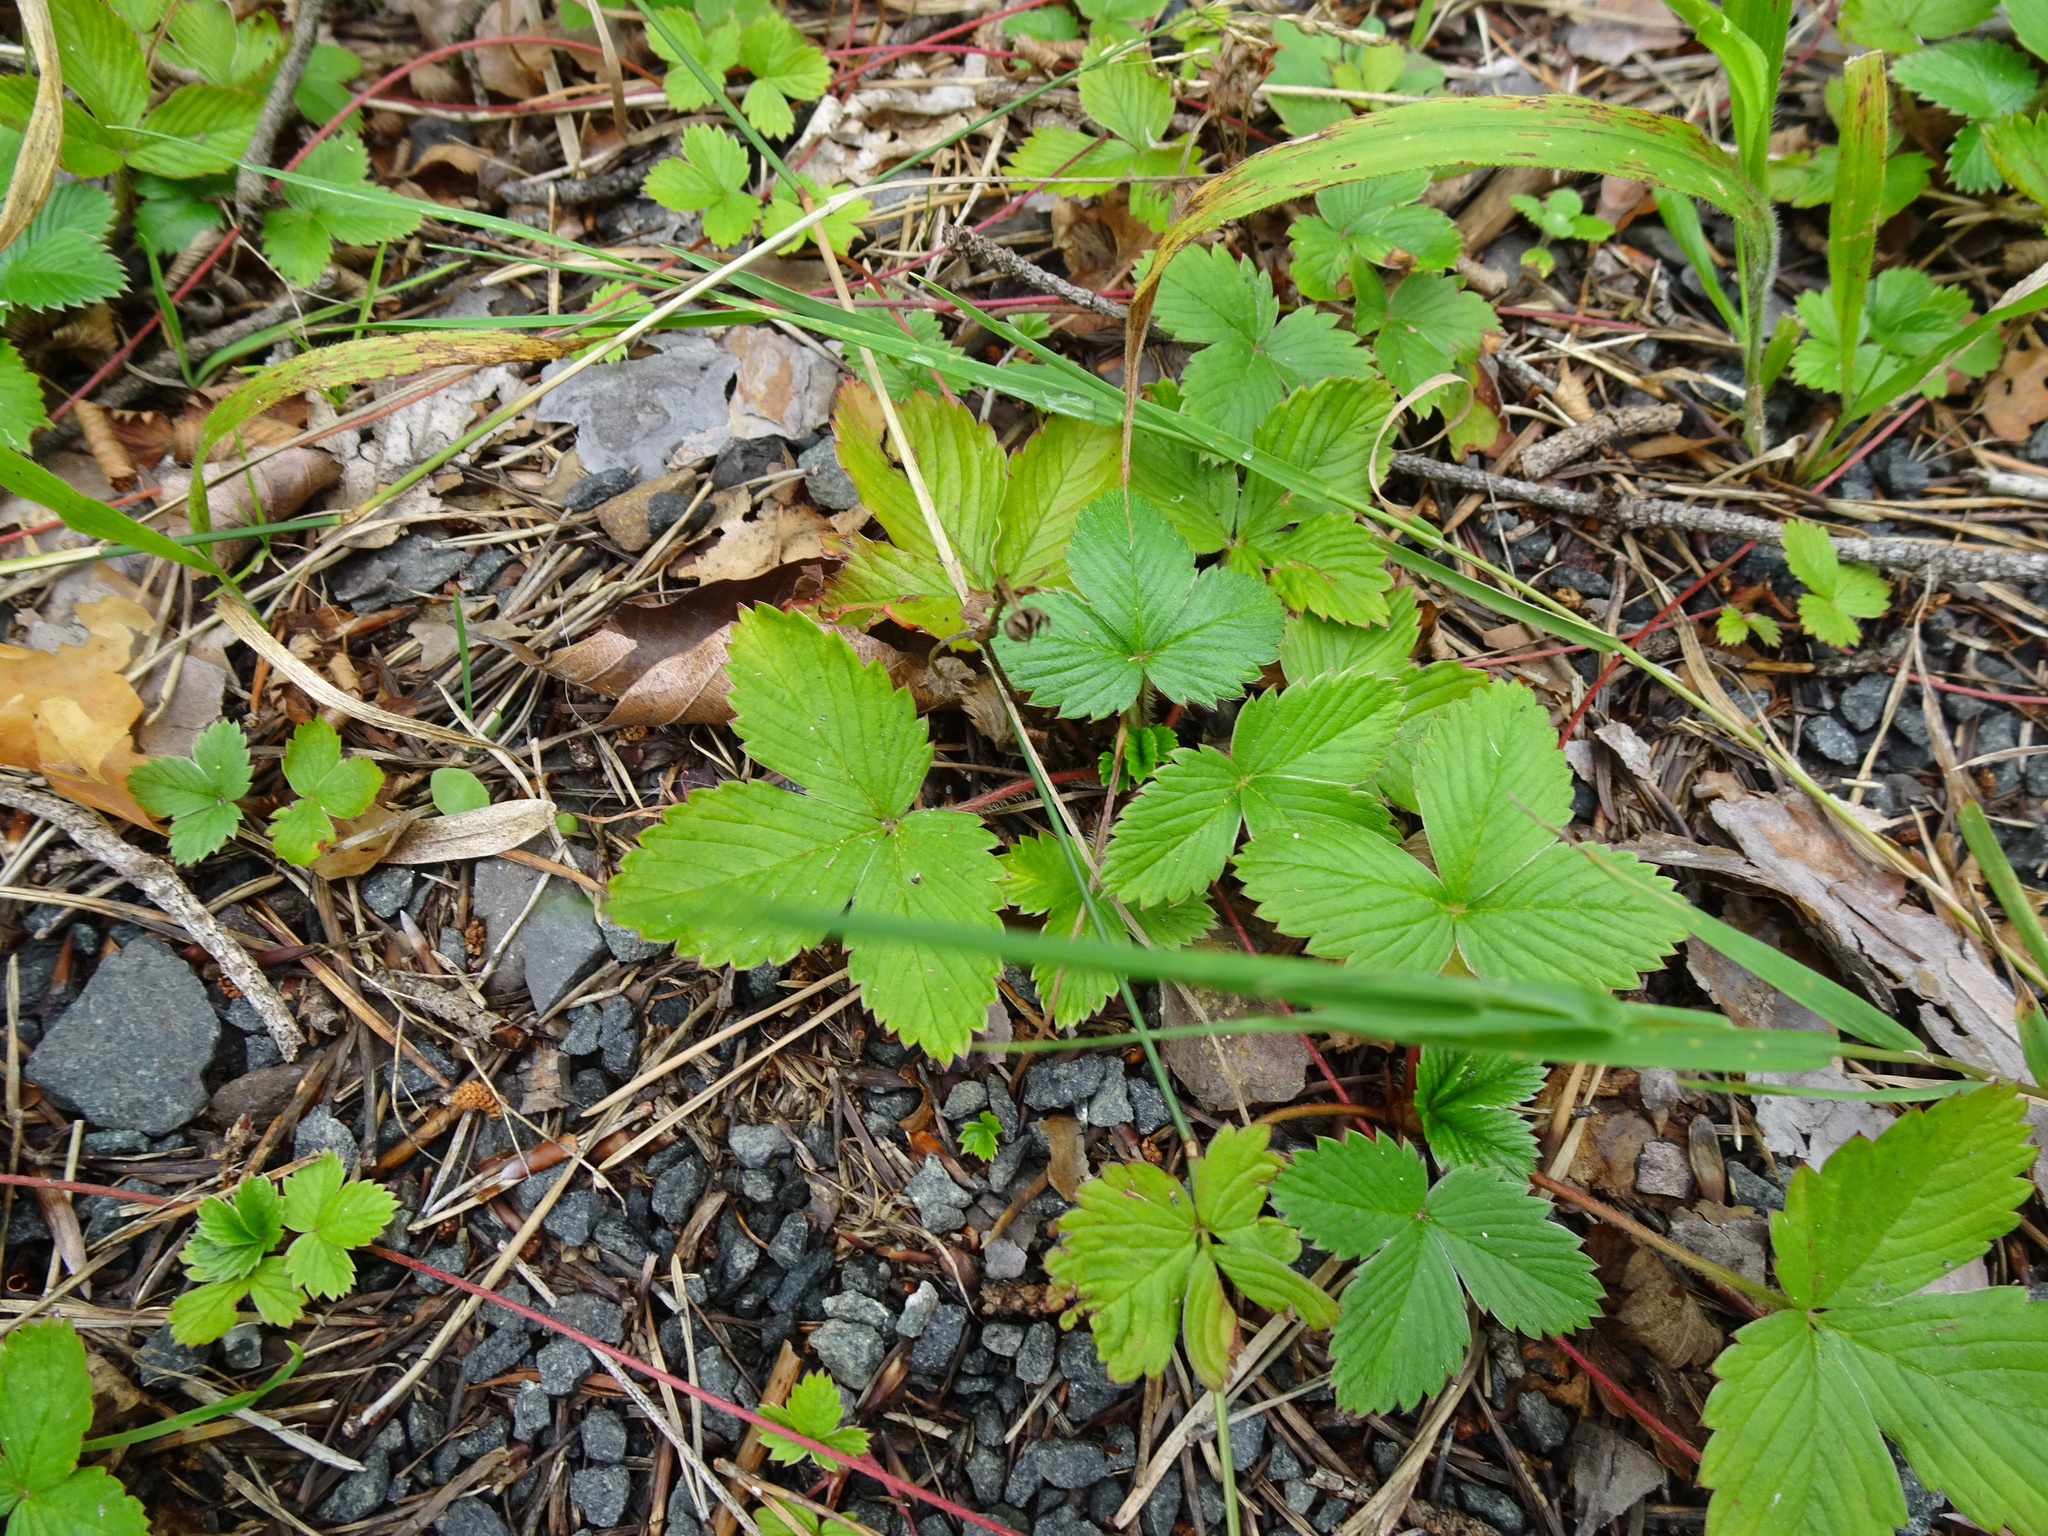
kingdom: Plantae
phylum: Tracheophyta
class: Magnoliopsida
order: Rosales
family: Rosaceae
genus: Fragaria
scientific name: Fragaria vesca
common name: Wild strawberry
